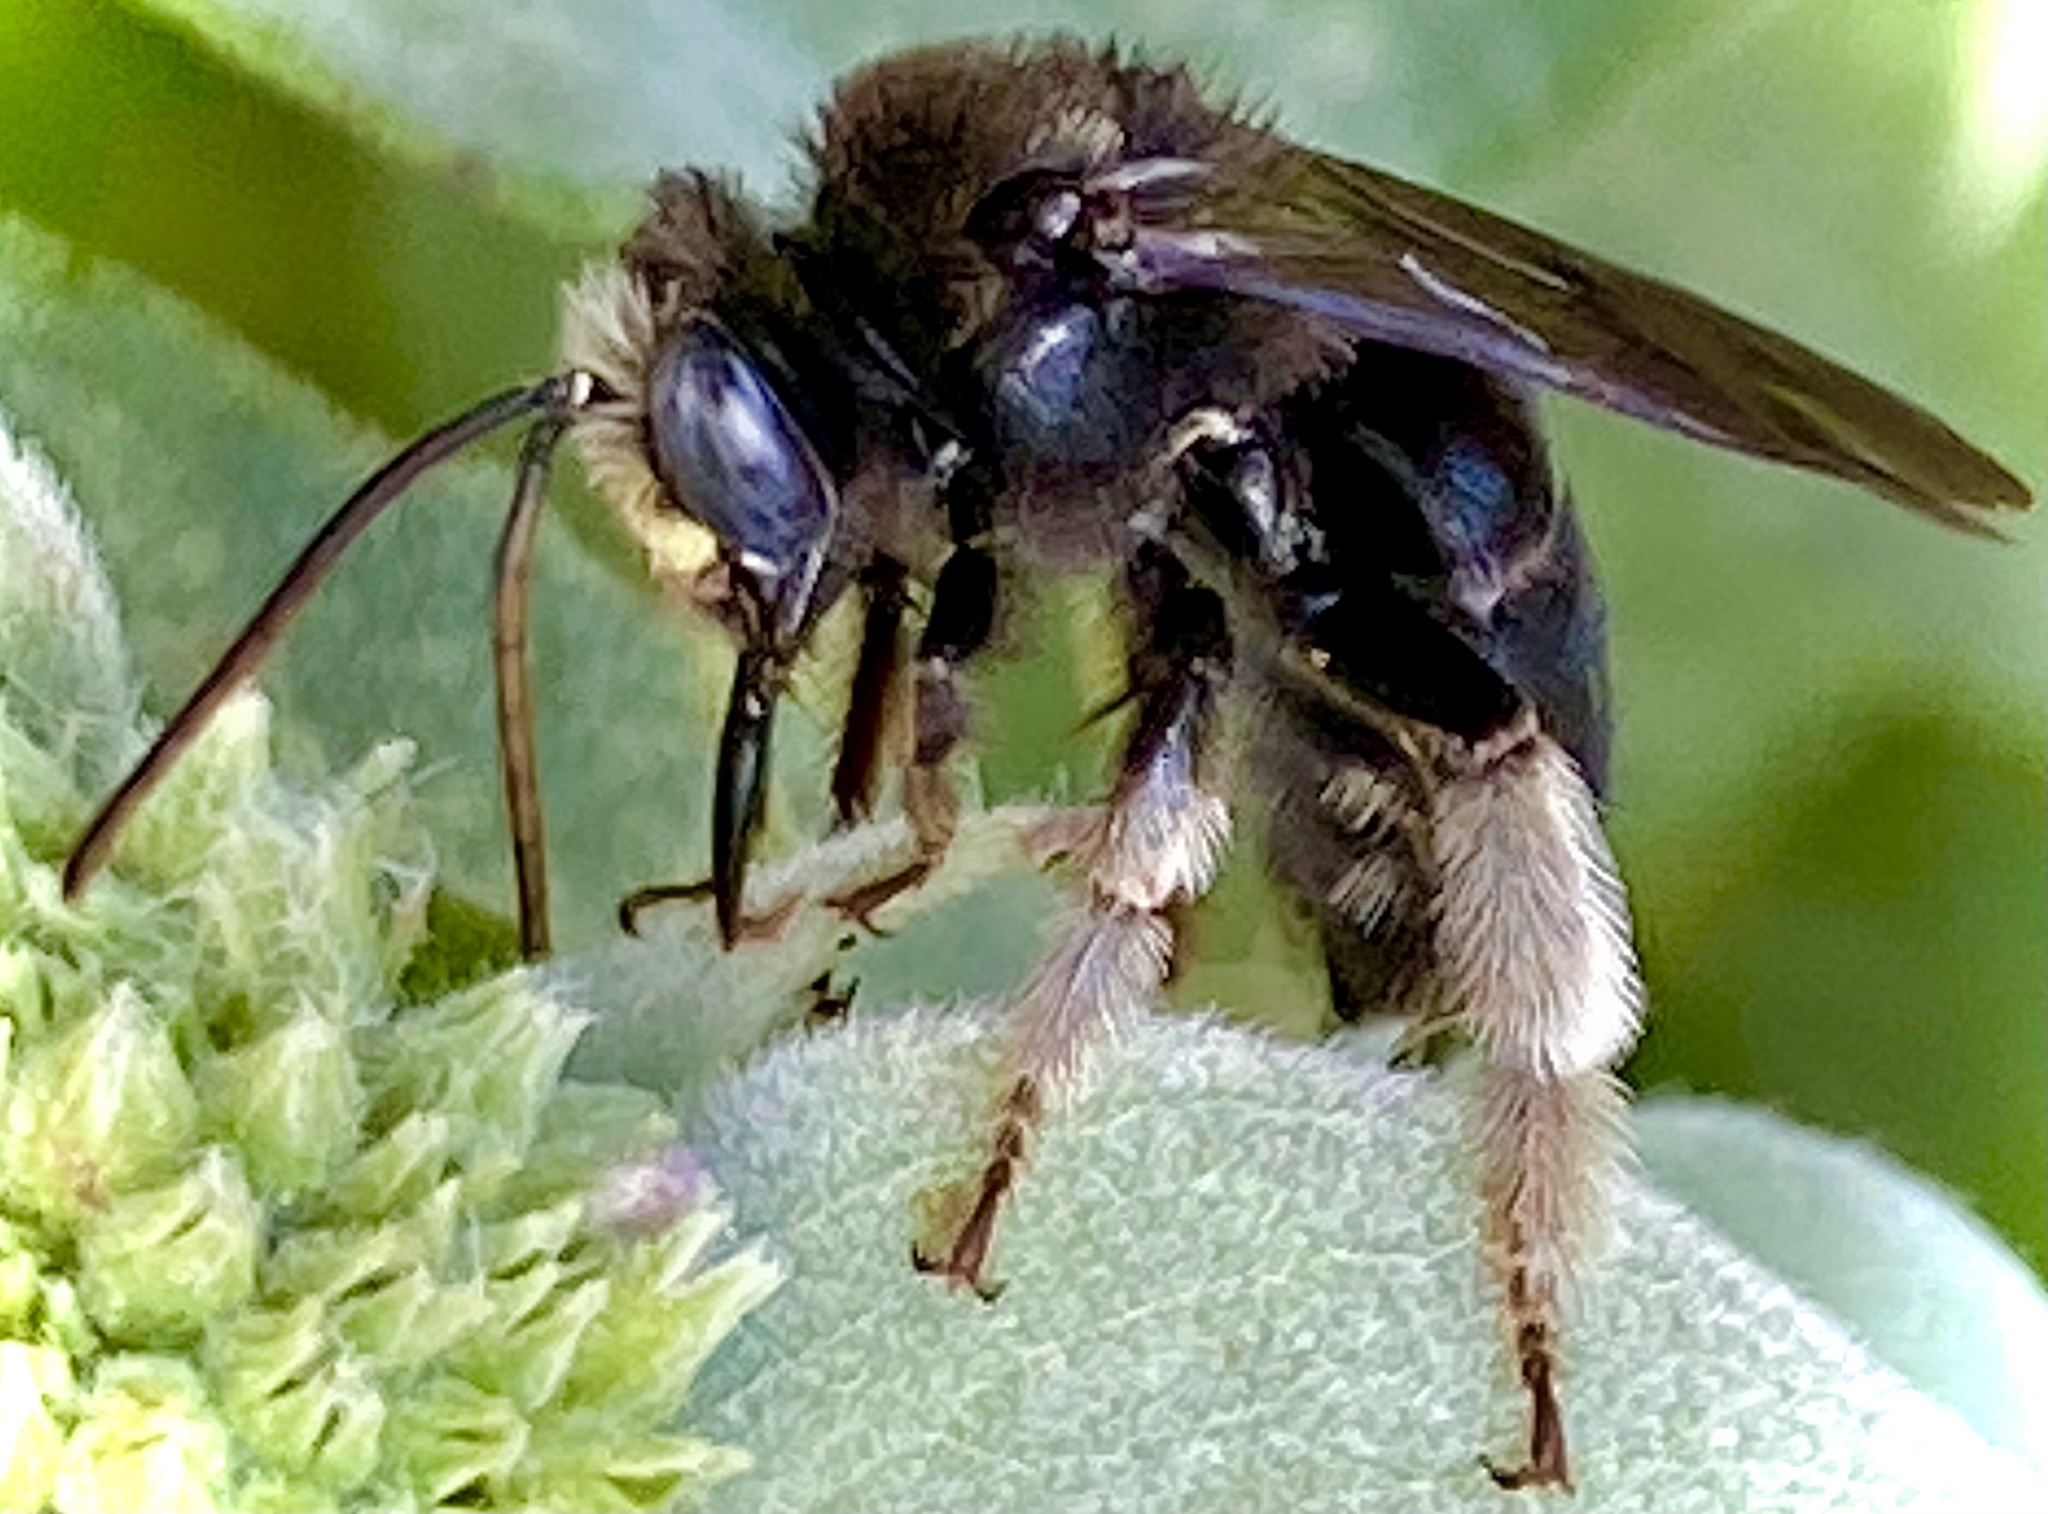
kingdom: Animalia
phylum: Arthropoda
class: Insecta
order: Hymenoptera
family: Apidae
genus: Melissodes
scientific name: Melissodes bimaculatus
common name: Two-spotted long-horned bee
